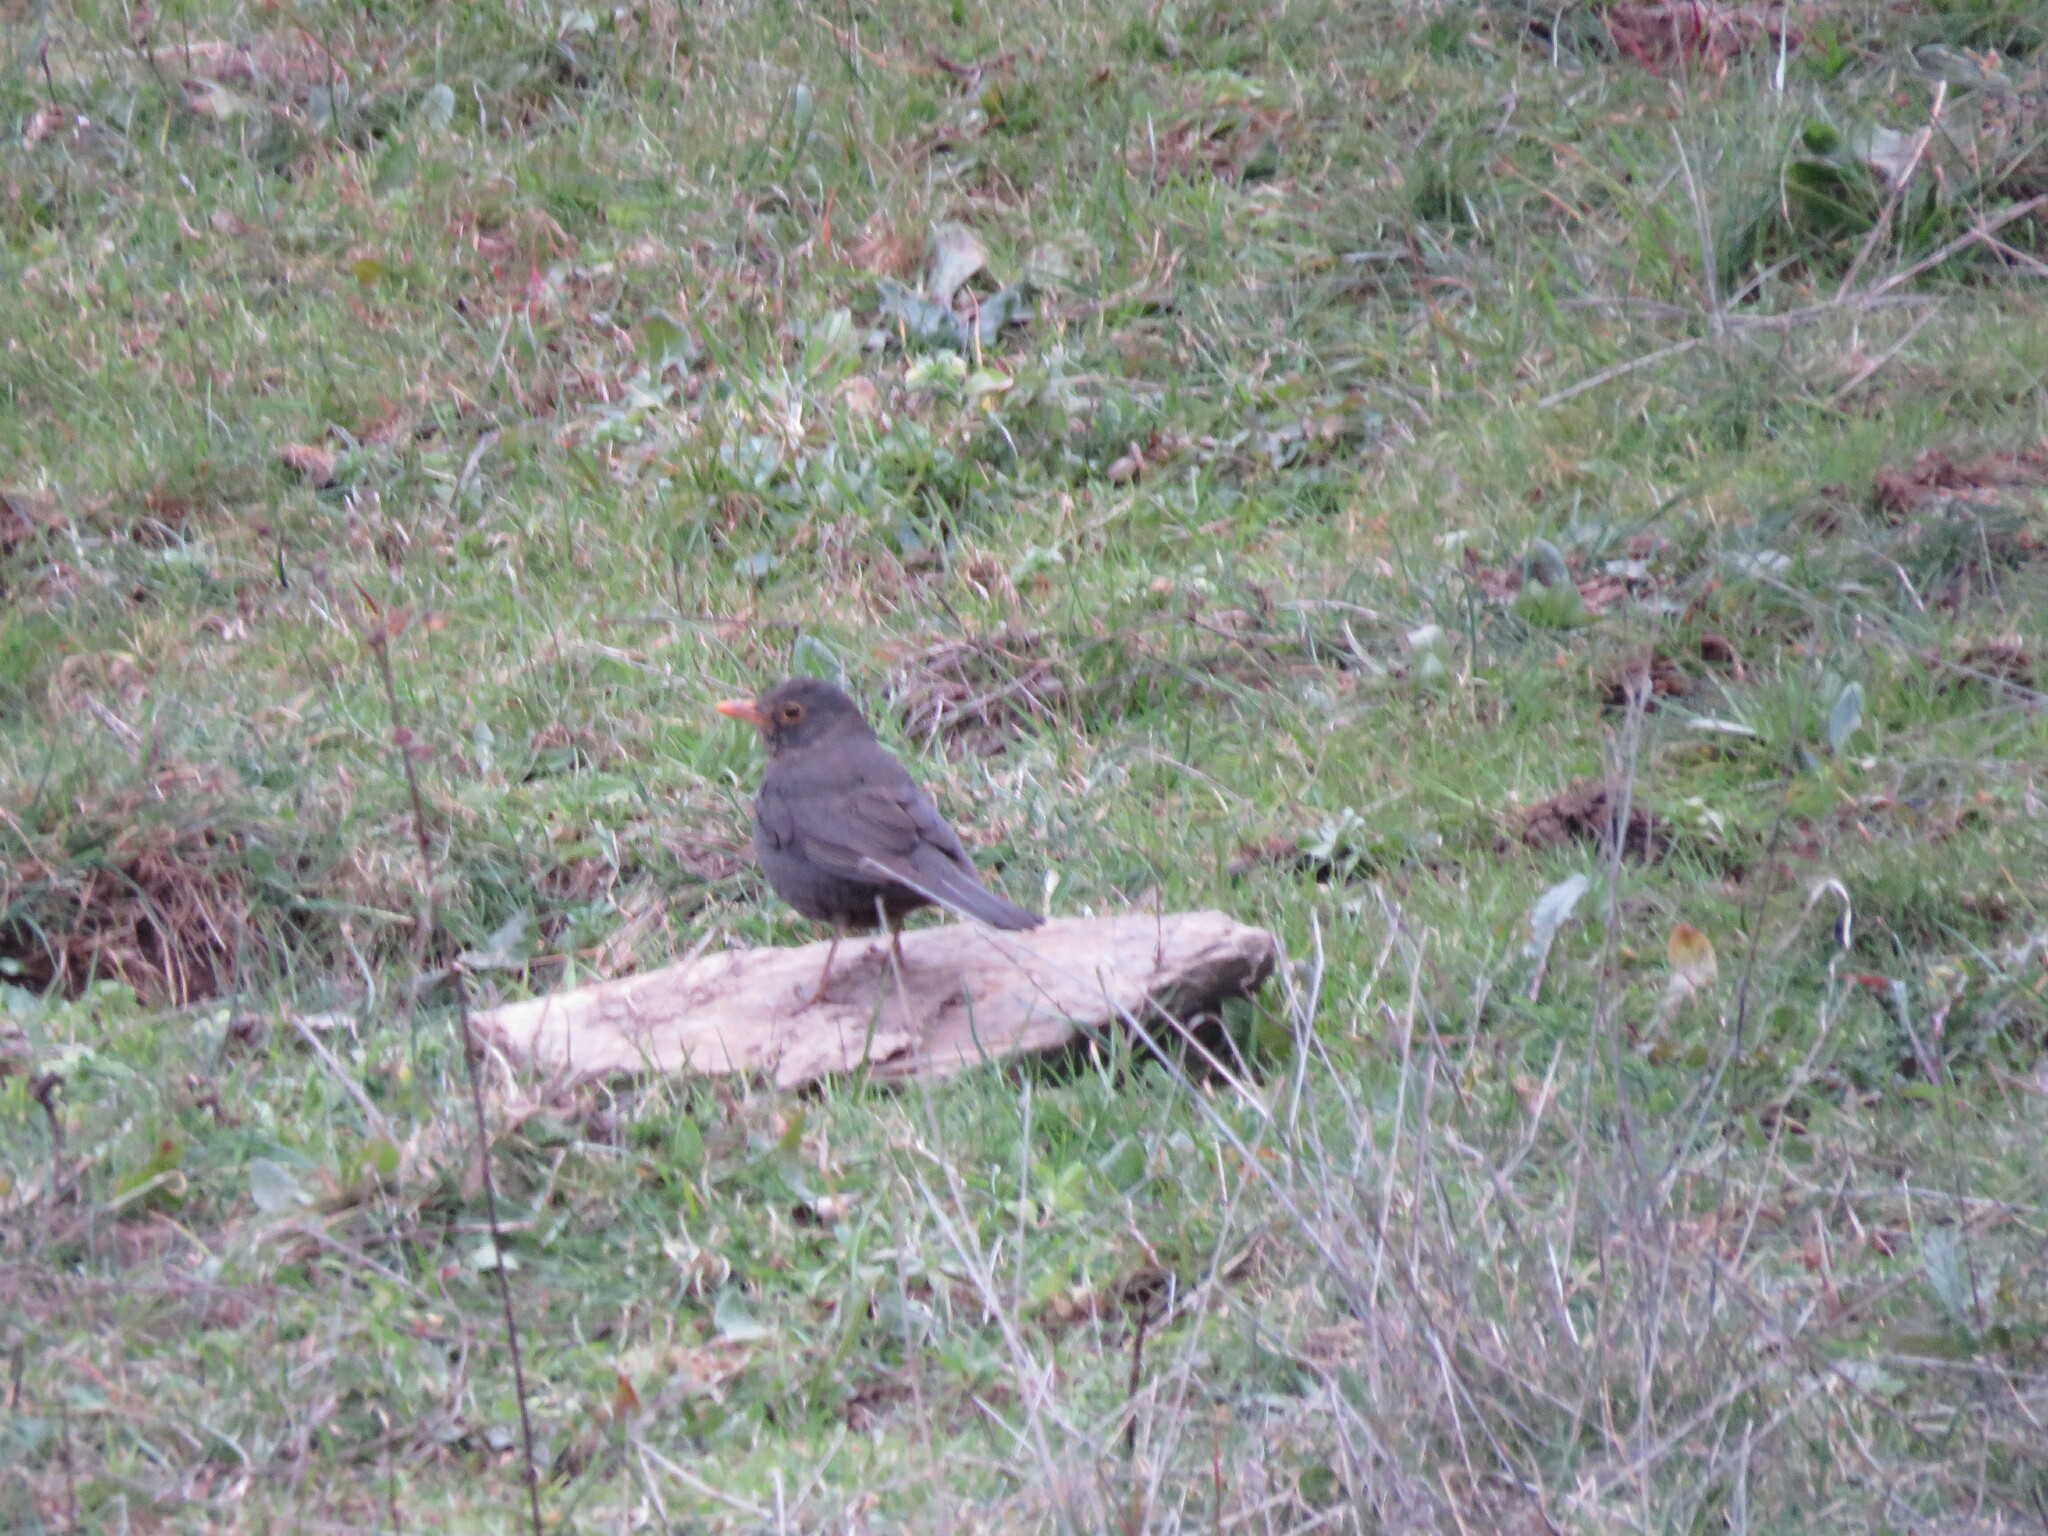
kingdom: Animalia
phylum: Chordata
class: Aves
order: Passeriformes
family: Turdidae
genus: Turdus
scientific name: Turdus merula
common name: Common blackbird
